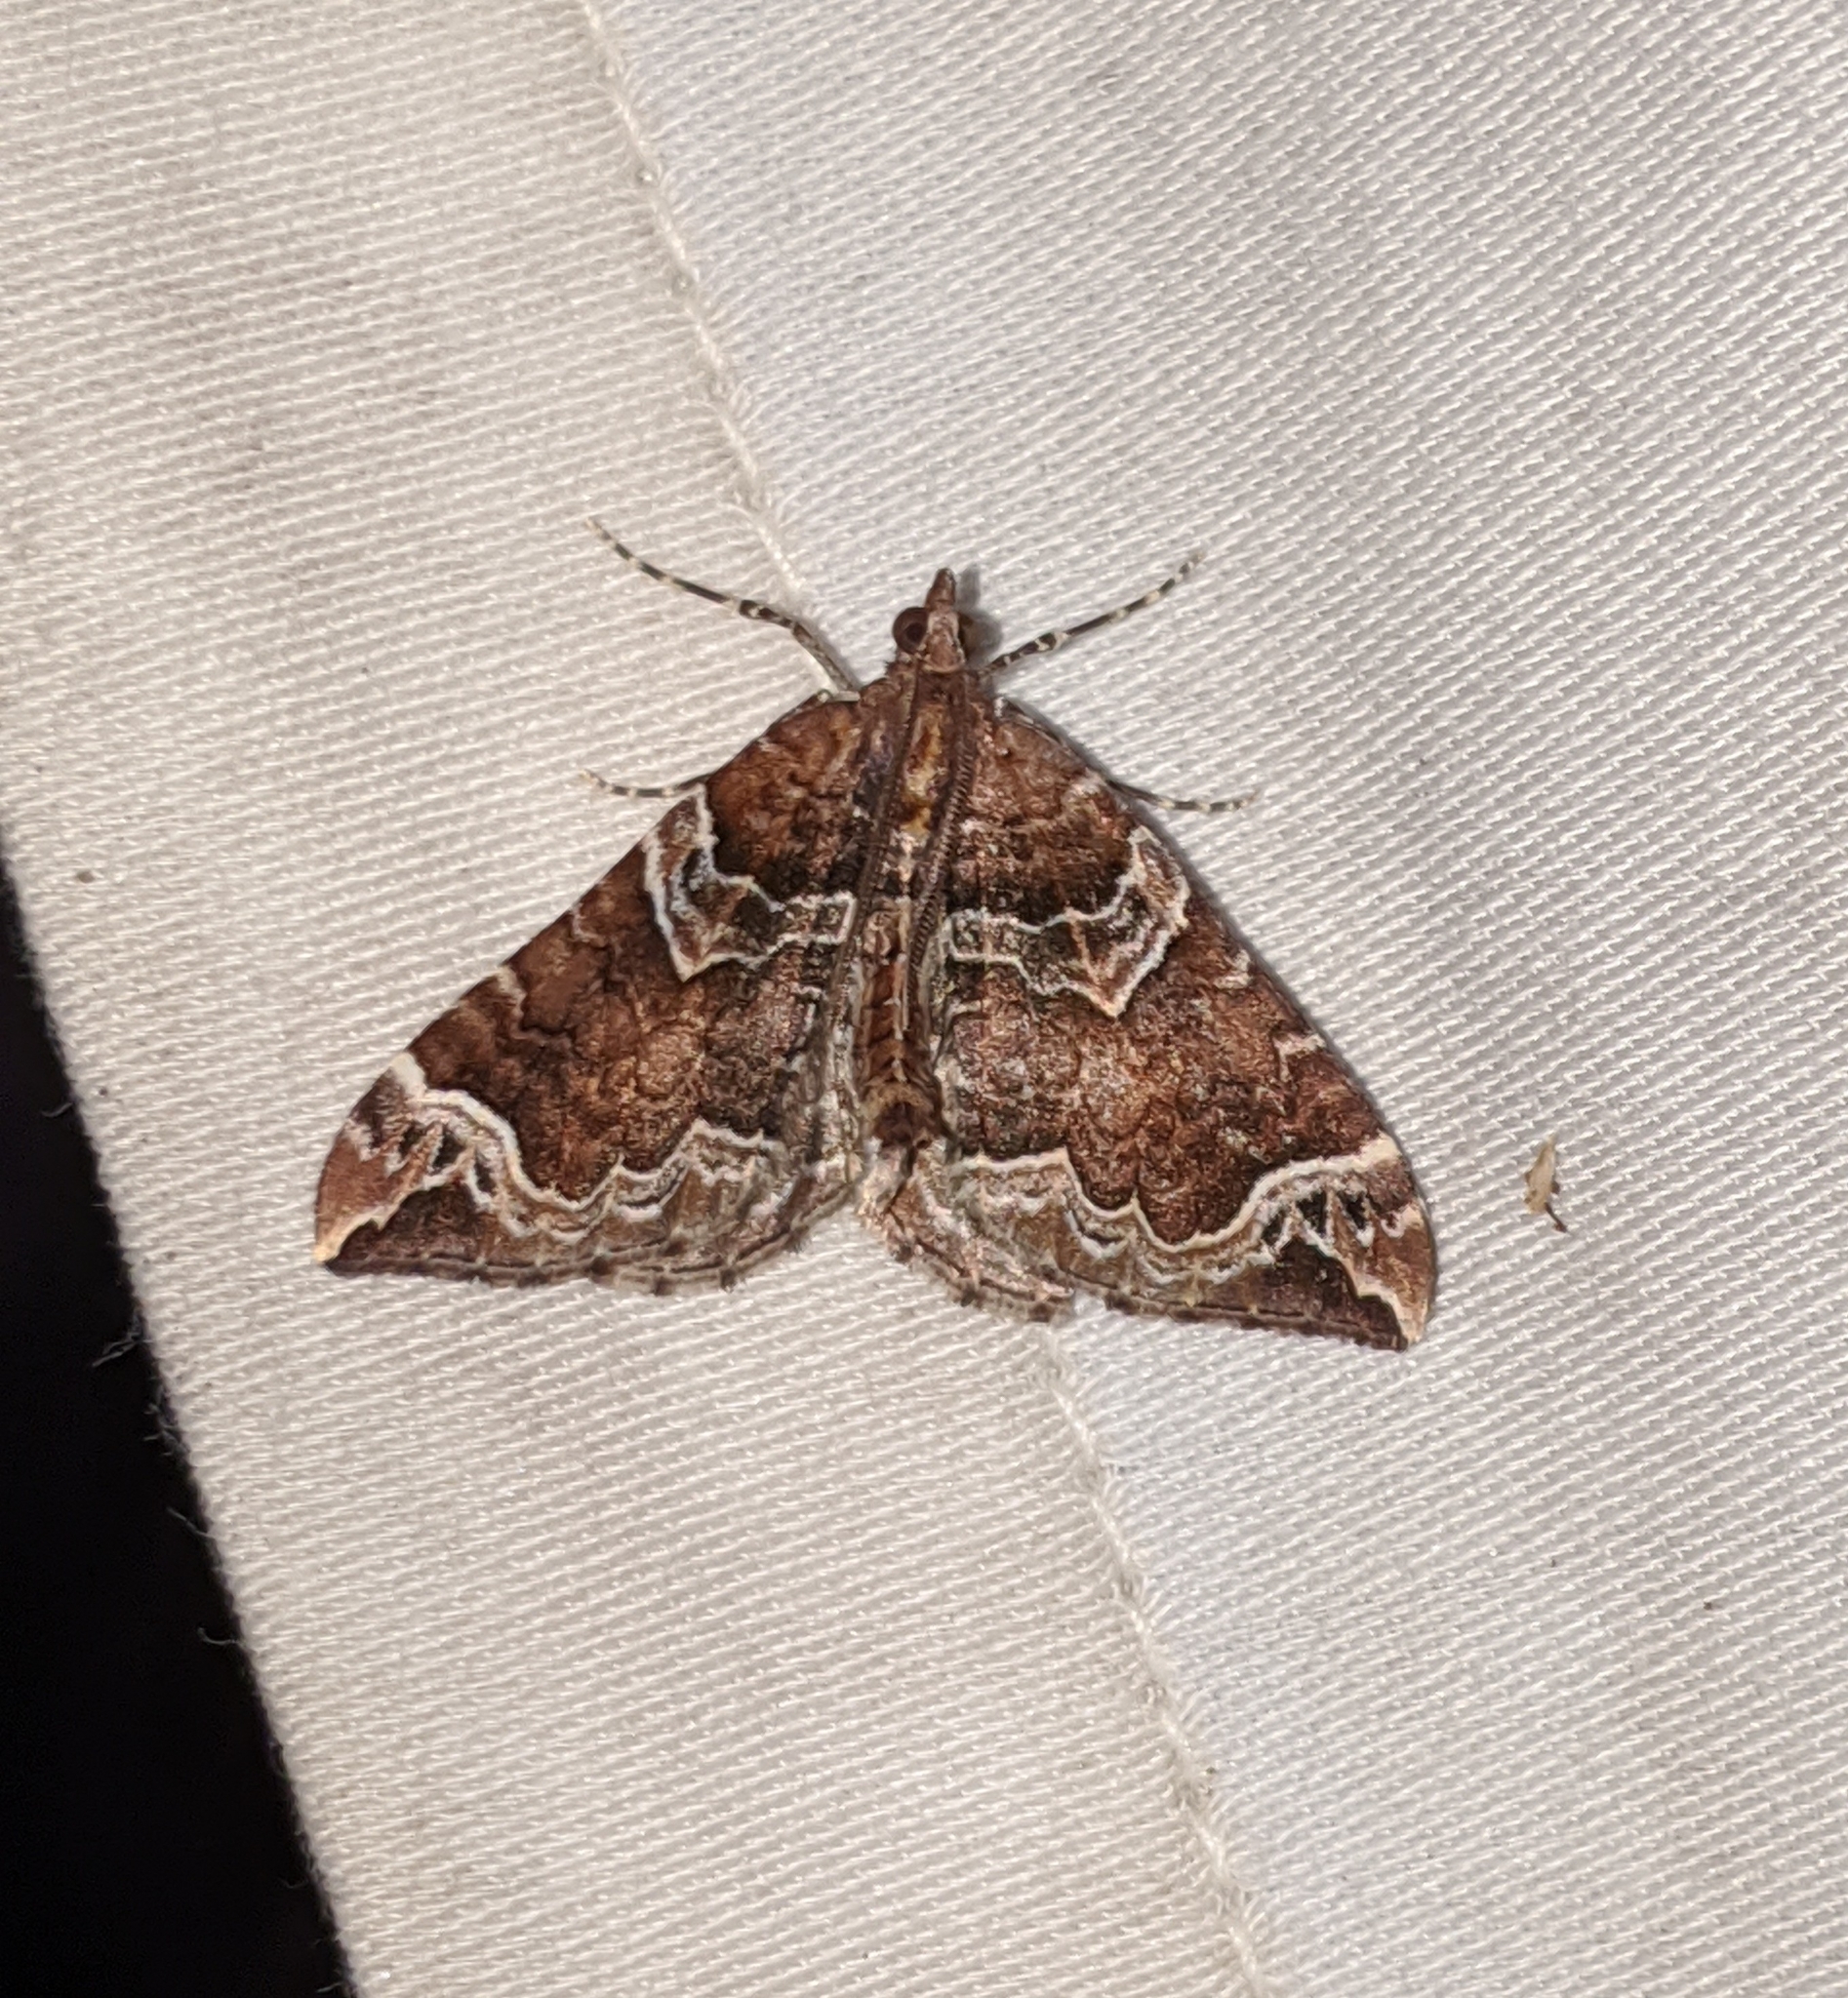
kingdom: Animalia
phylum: Arthropoda
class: Insecta
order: Lepidoptera
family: Geometridae
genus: Eulithis
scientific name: Eulithis xylina
